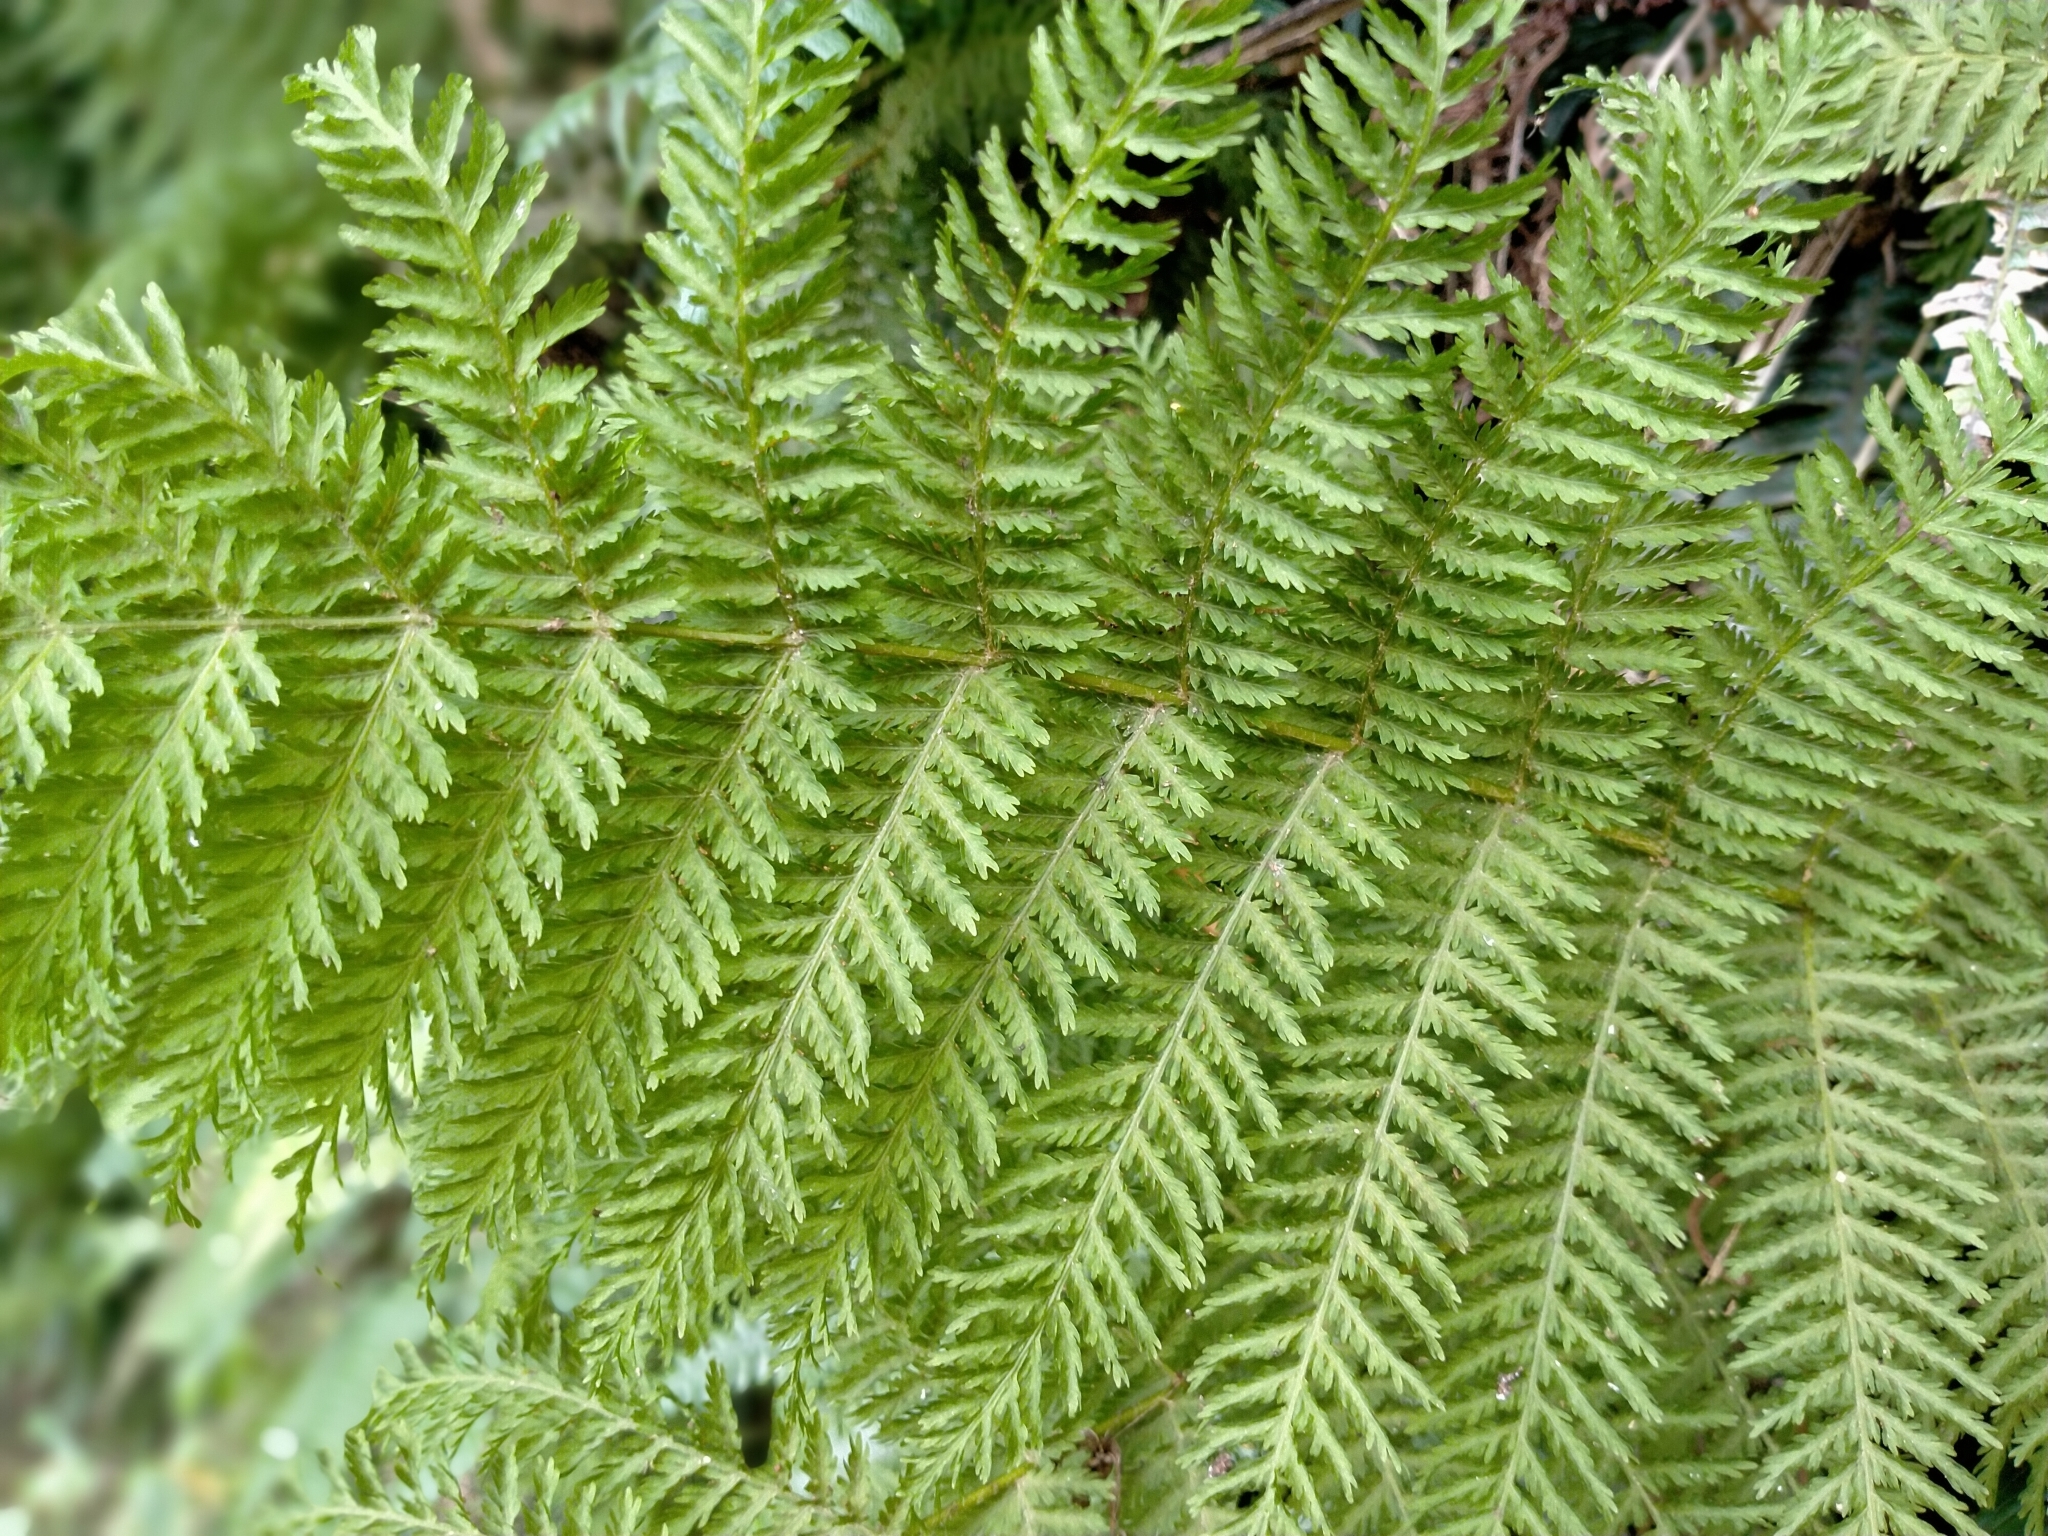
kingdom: Plantae
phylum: Tracheophyta
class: Polypodiopsida
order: Osmundales
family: Osmundaceae
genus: Leptopteris
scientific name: Leptopteris hymenophylloides
